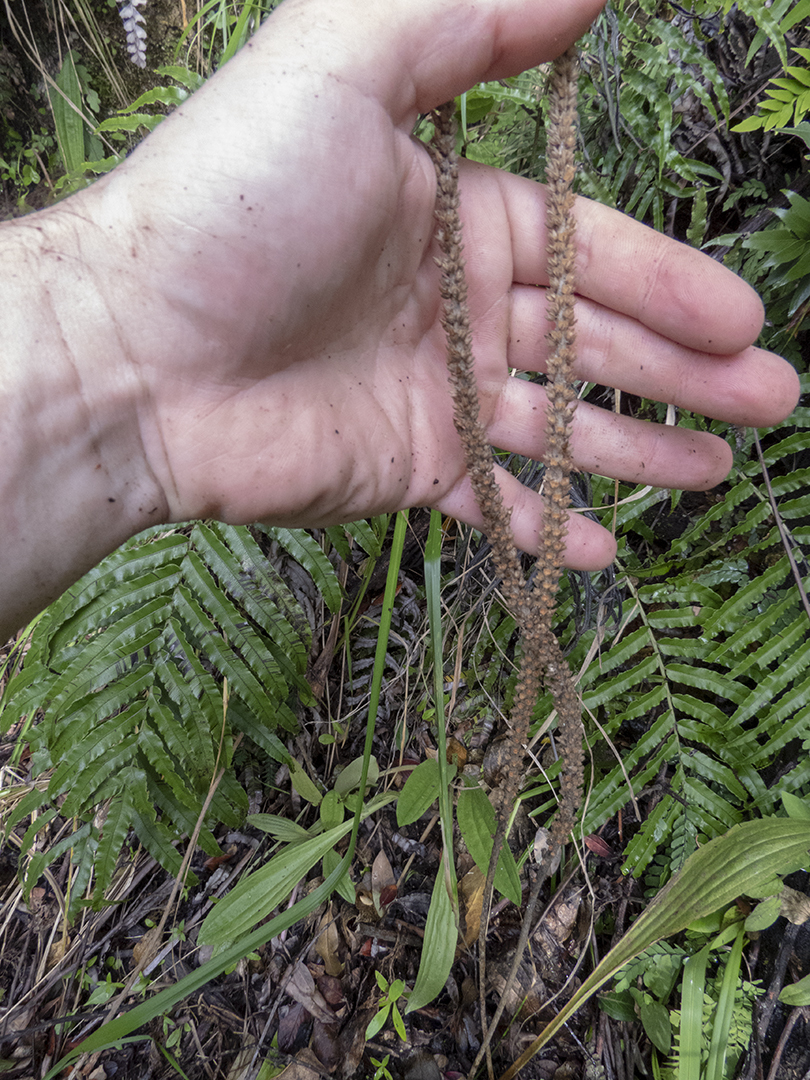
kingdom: Plantae
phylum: Tracheophyta
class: Magnoliopsida
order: Lamiales
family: Plantaginaceae
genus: Plantago
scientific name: Plantago australis
